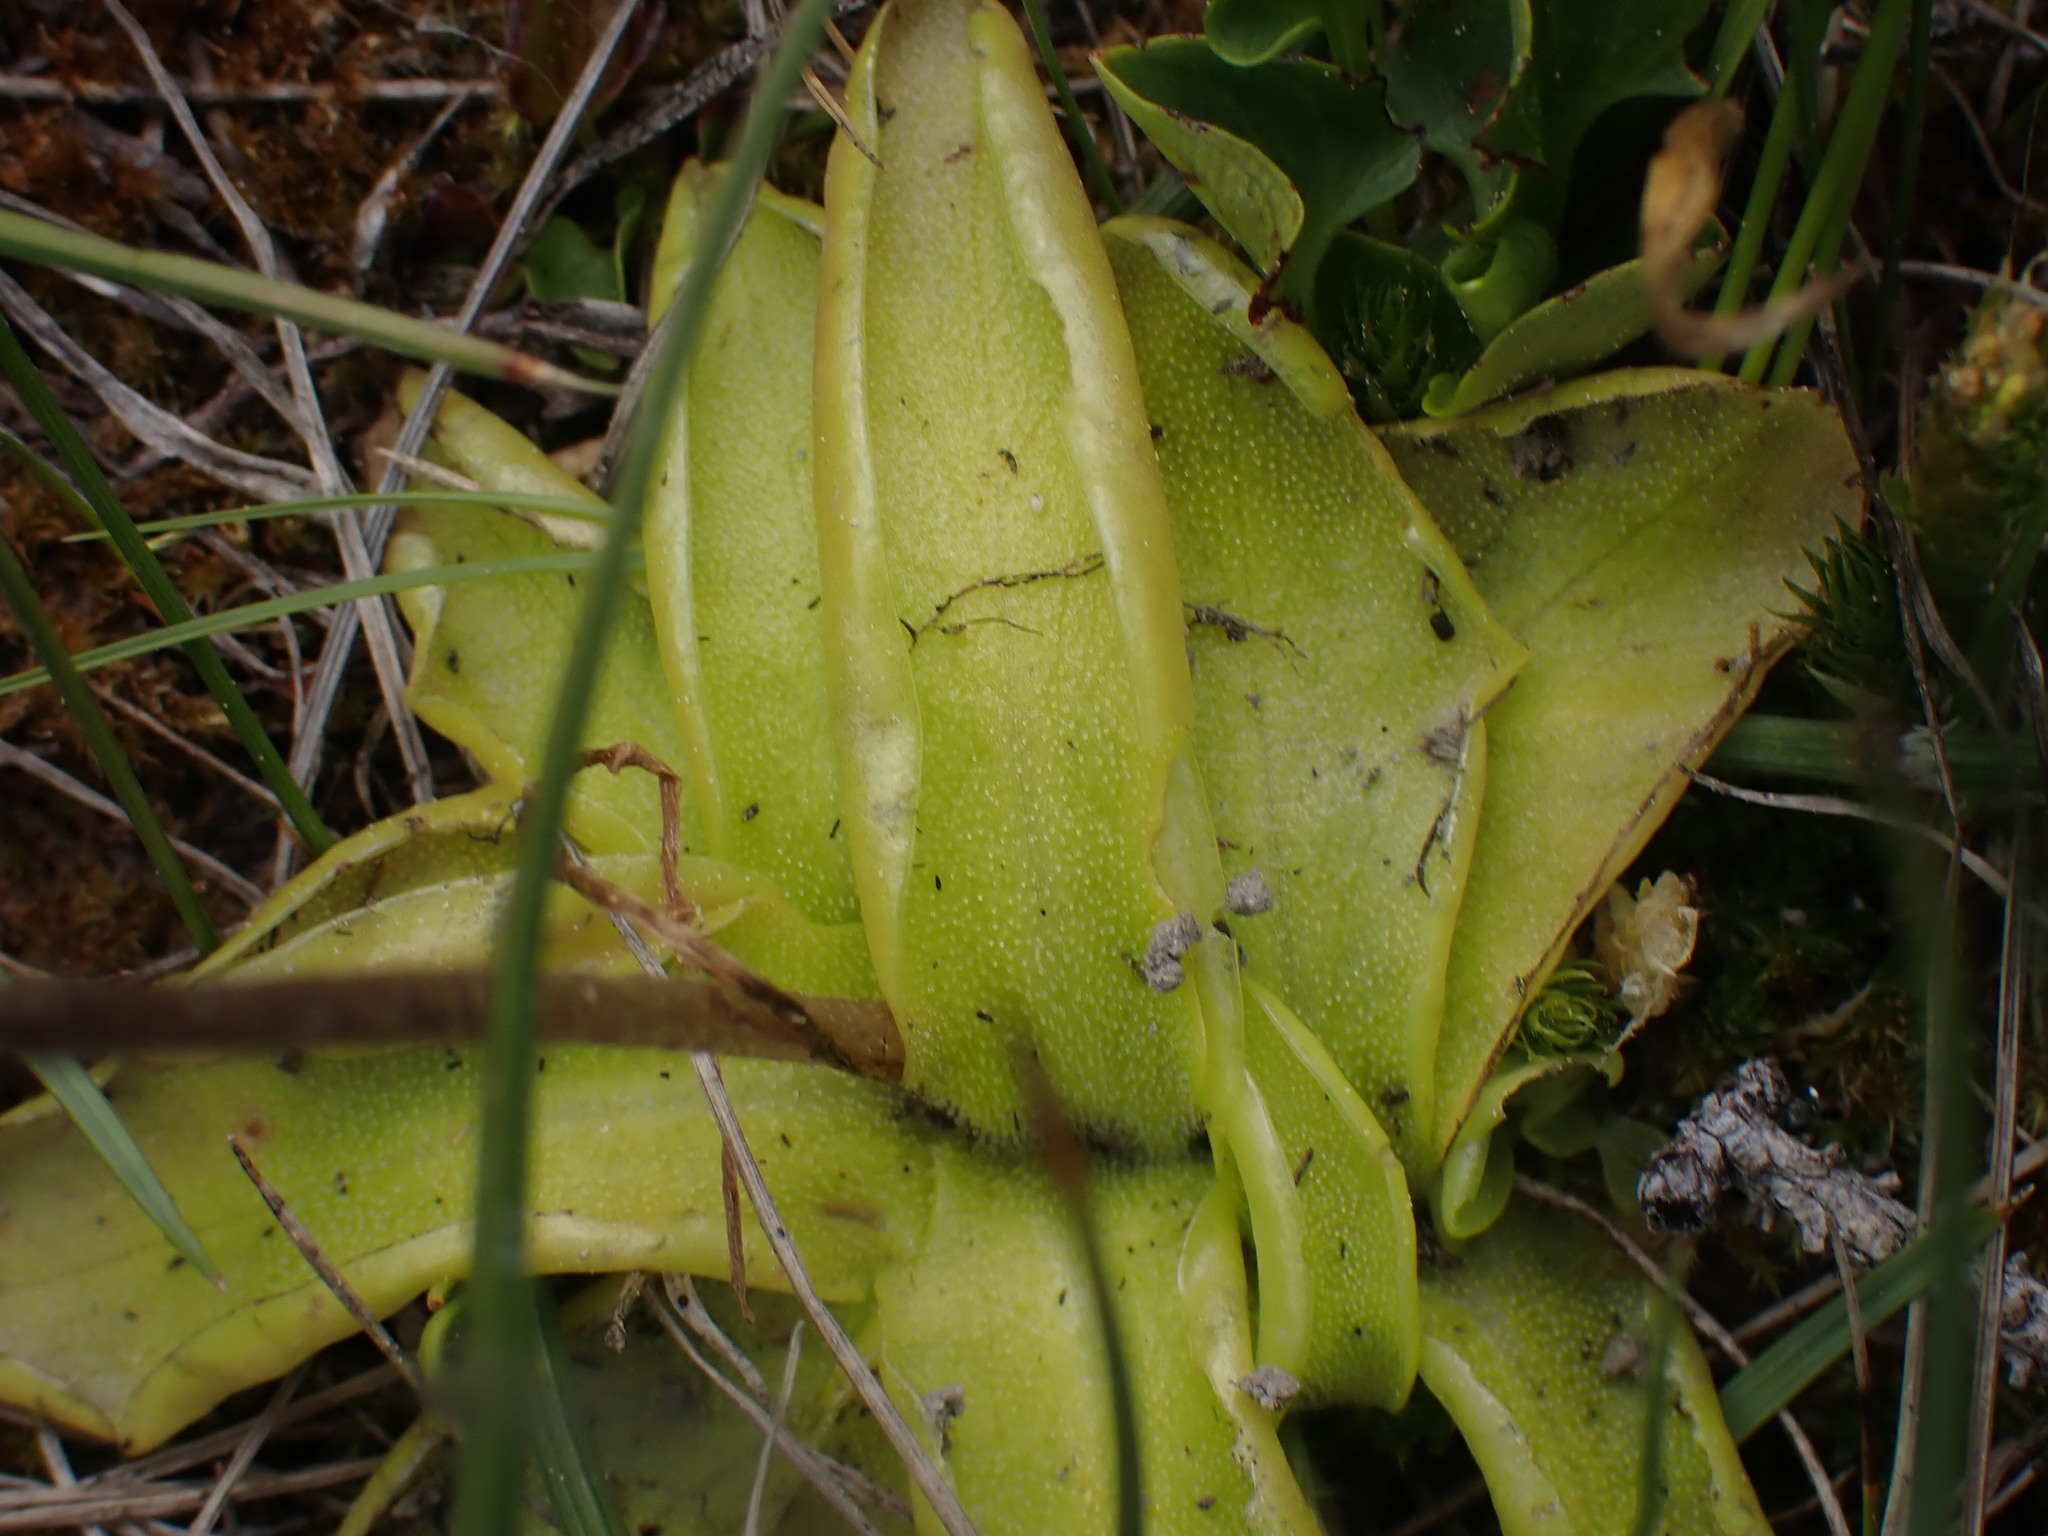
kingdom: Plantae
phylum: Tracheophyta
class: Magnoliopsida
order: Lamiales
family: Lentibulariaceae
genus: Pinguicula
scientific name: Pinguicula vulgaris
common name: Common butterwort
